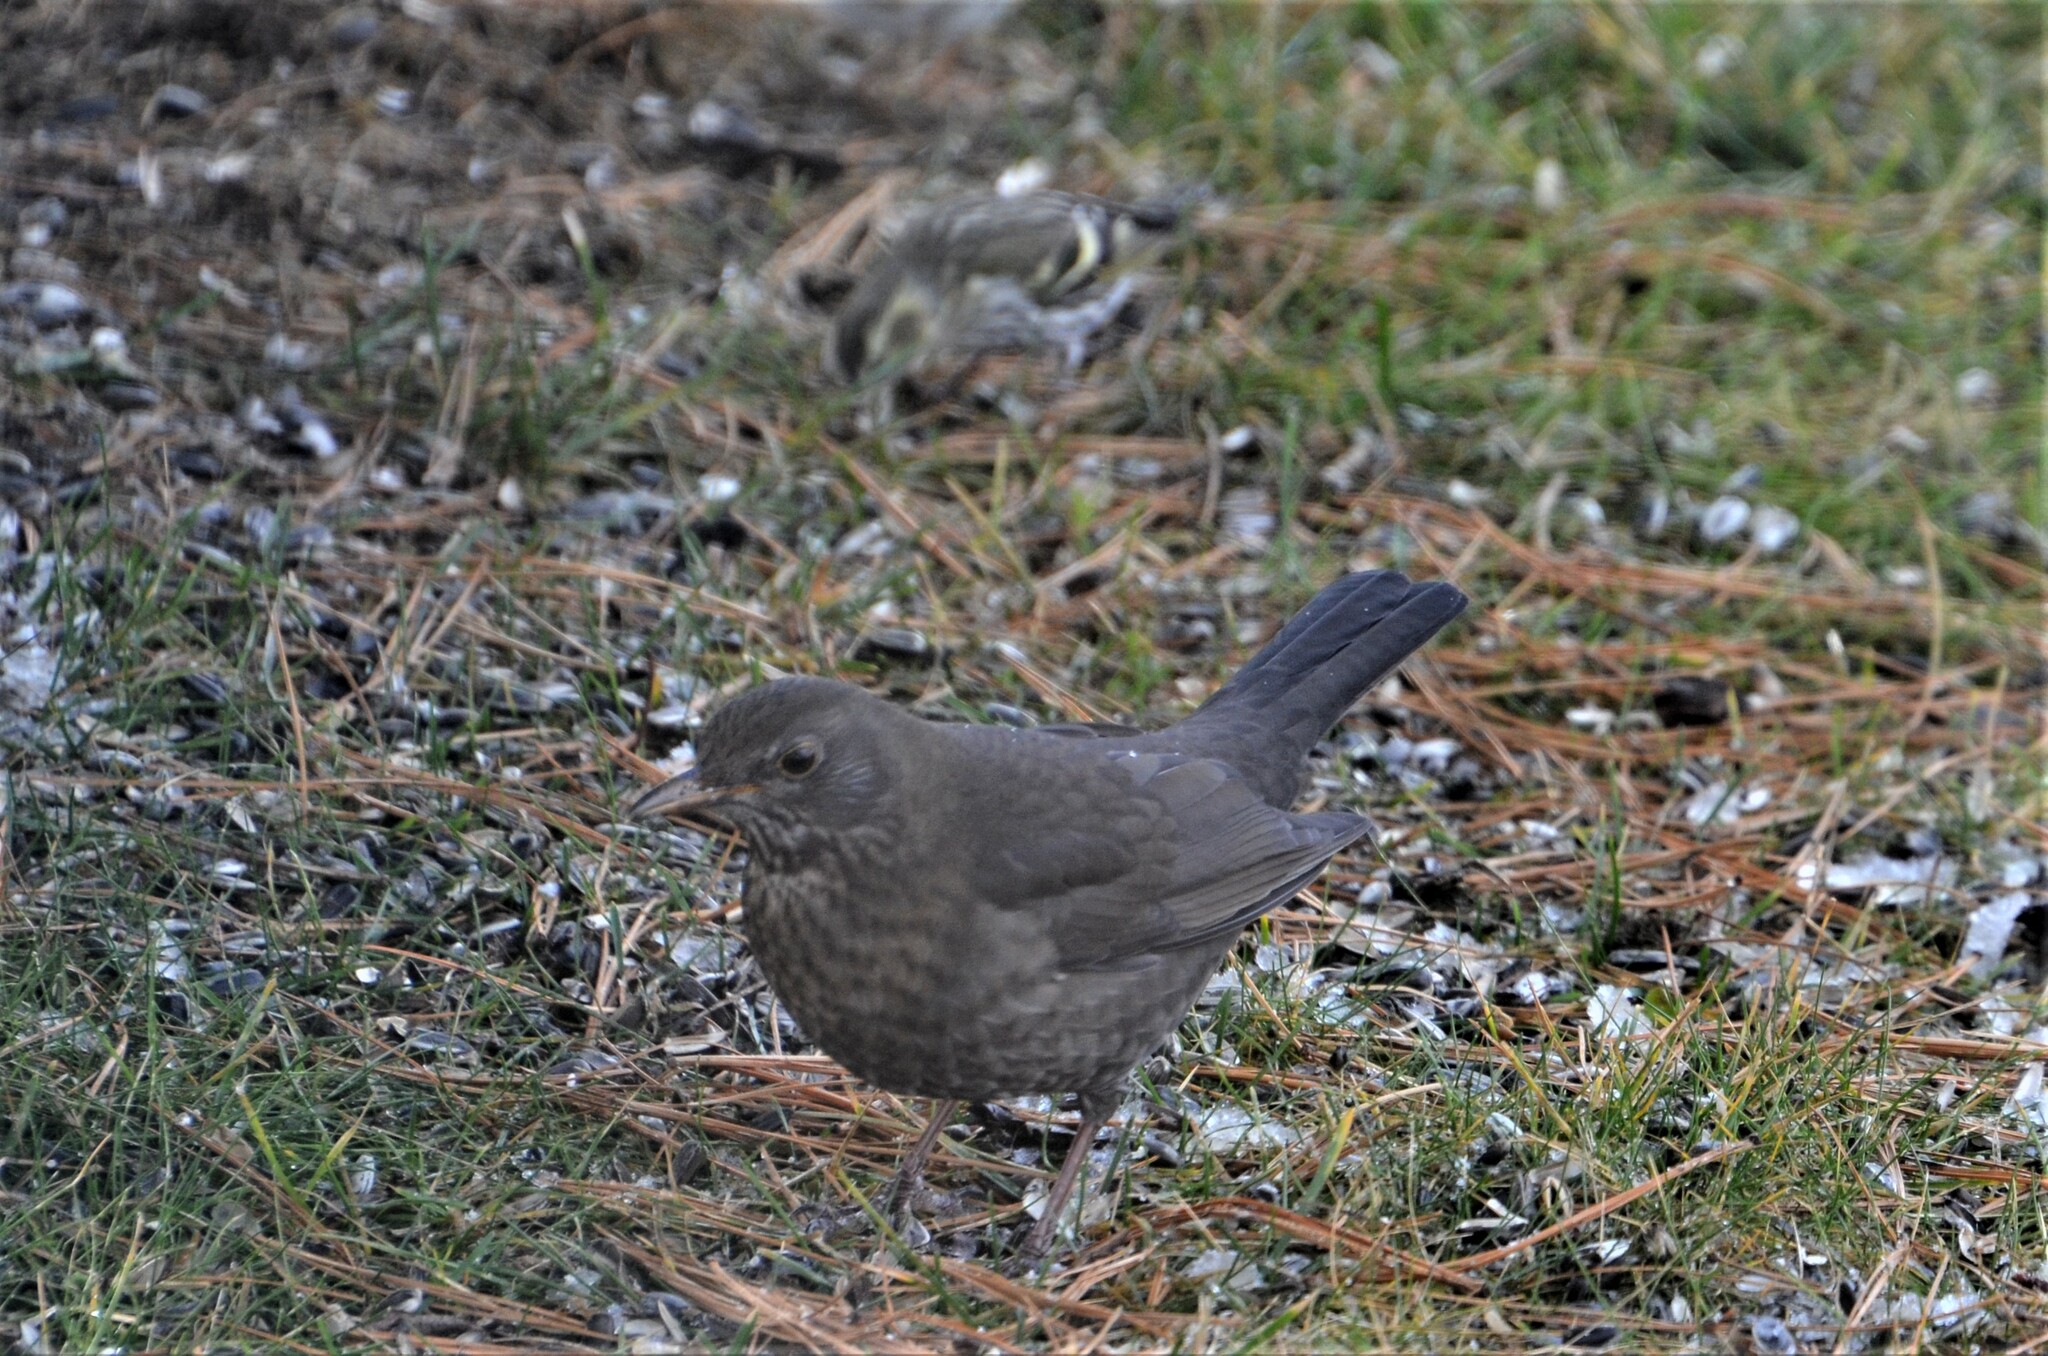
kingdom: Animalia
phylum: Chordata
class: Aves
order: Passeriformes
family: Turdidae
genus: Turdus
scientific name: Turdus merula
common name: Common blackbird
